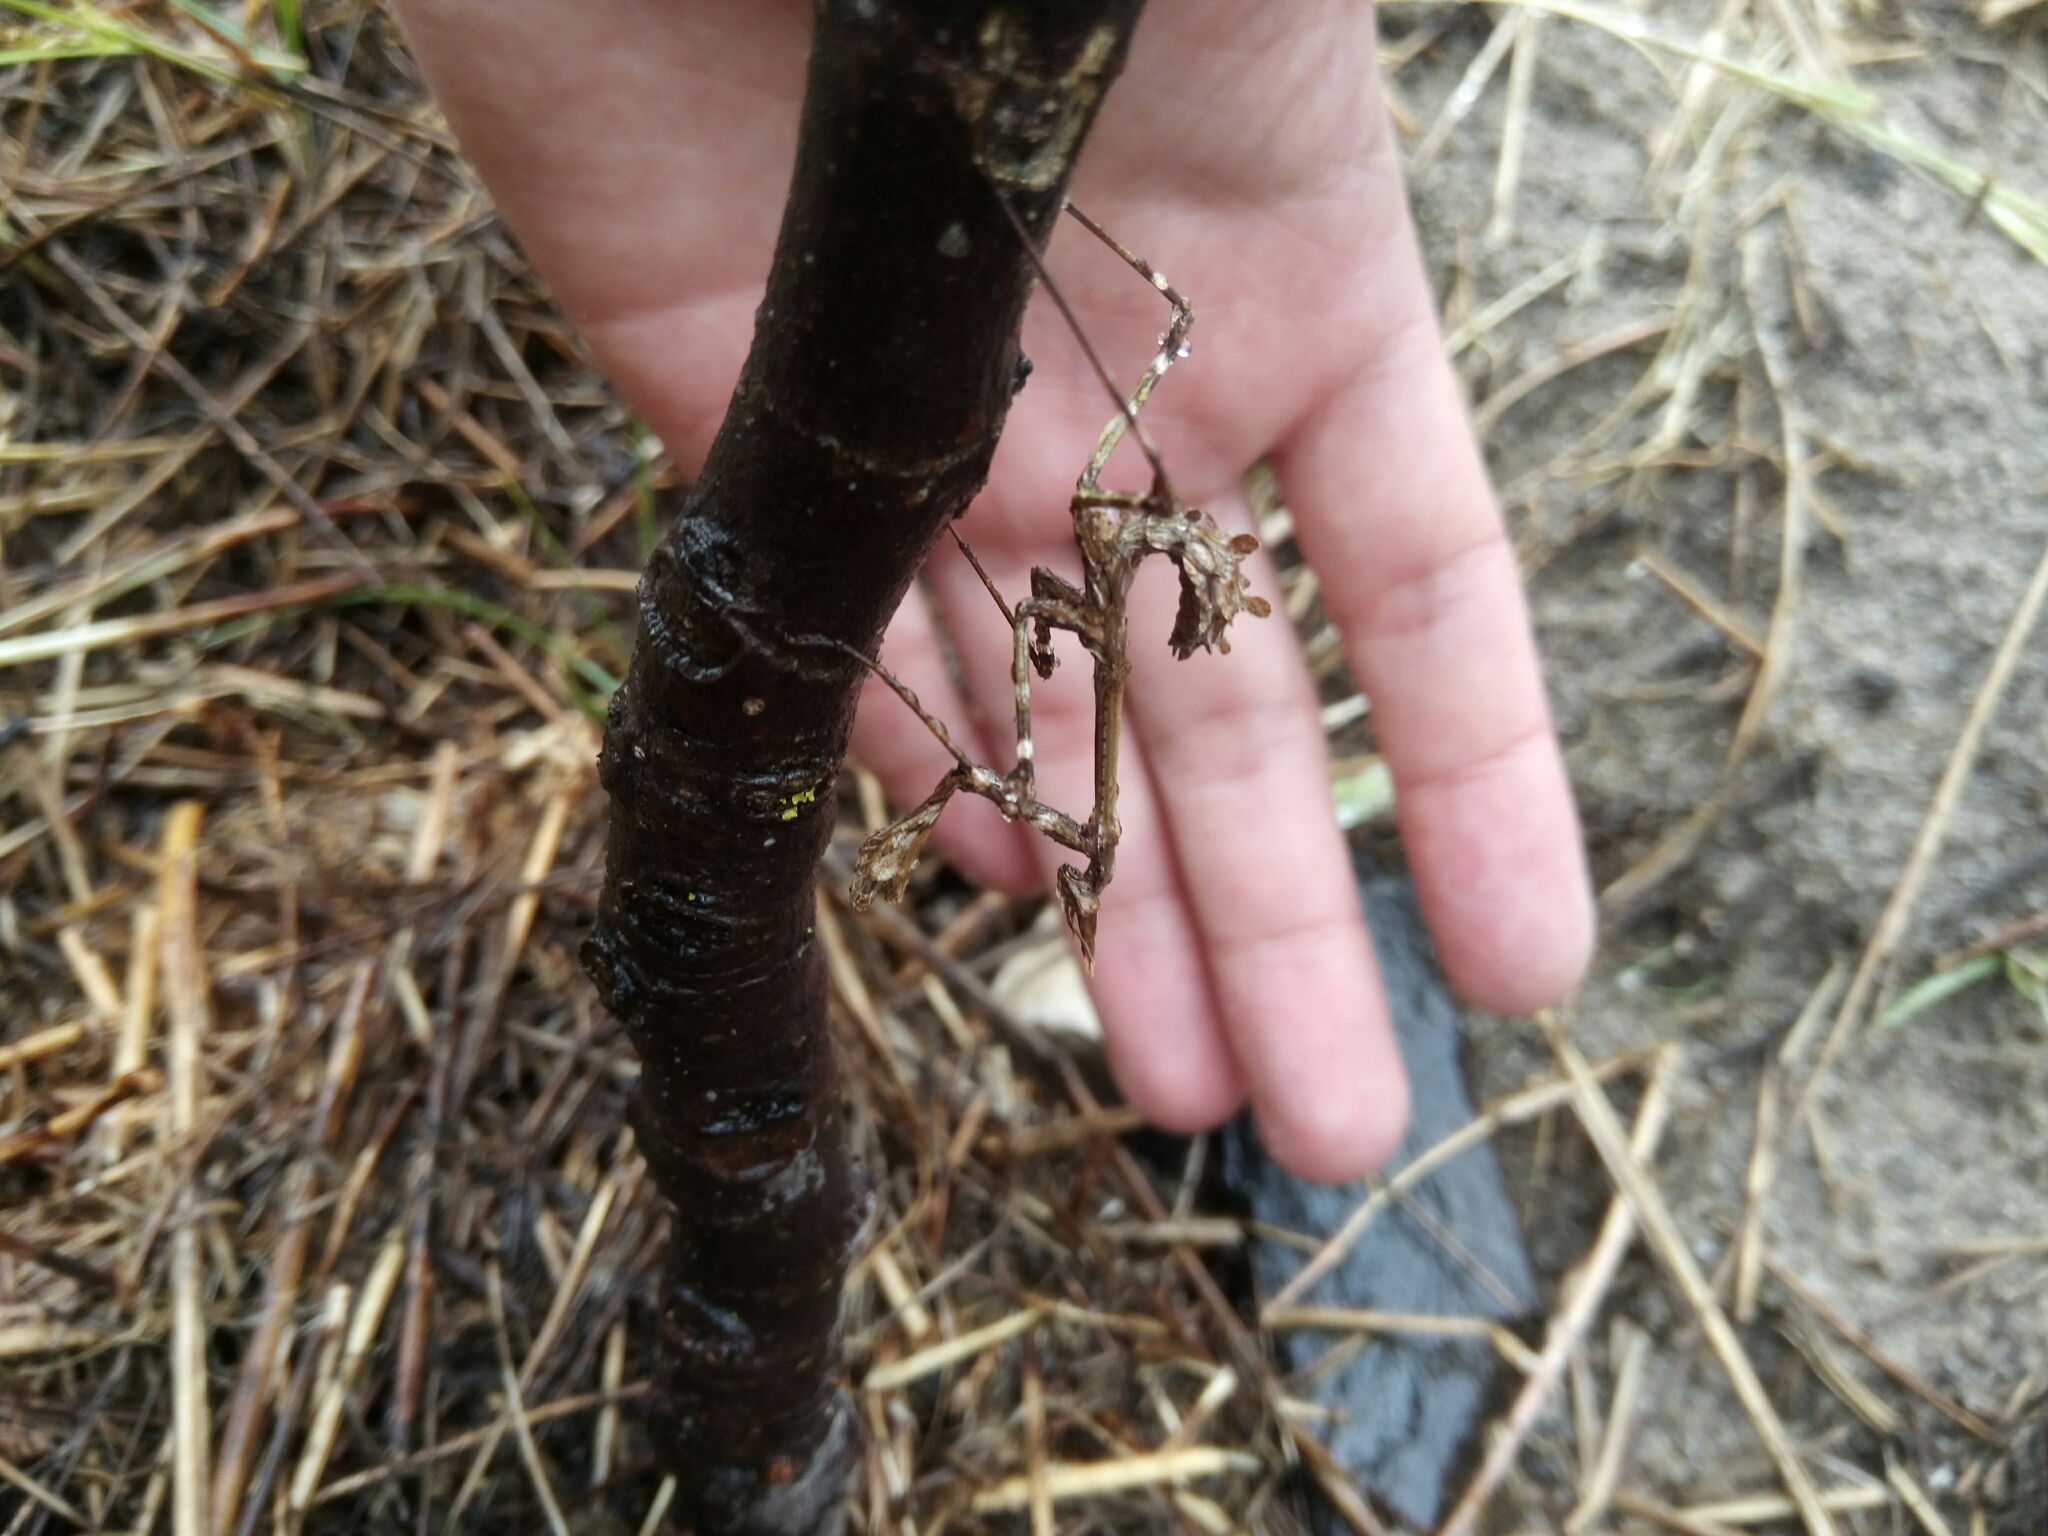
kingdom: Animalia
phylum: Arthropoda
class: Insecta
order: Mantodea
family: Empusidae
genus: Empusa
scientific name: Empusa pennata
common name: Conehead mantis
